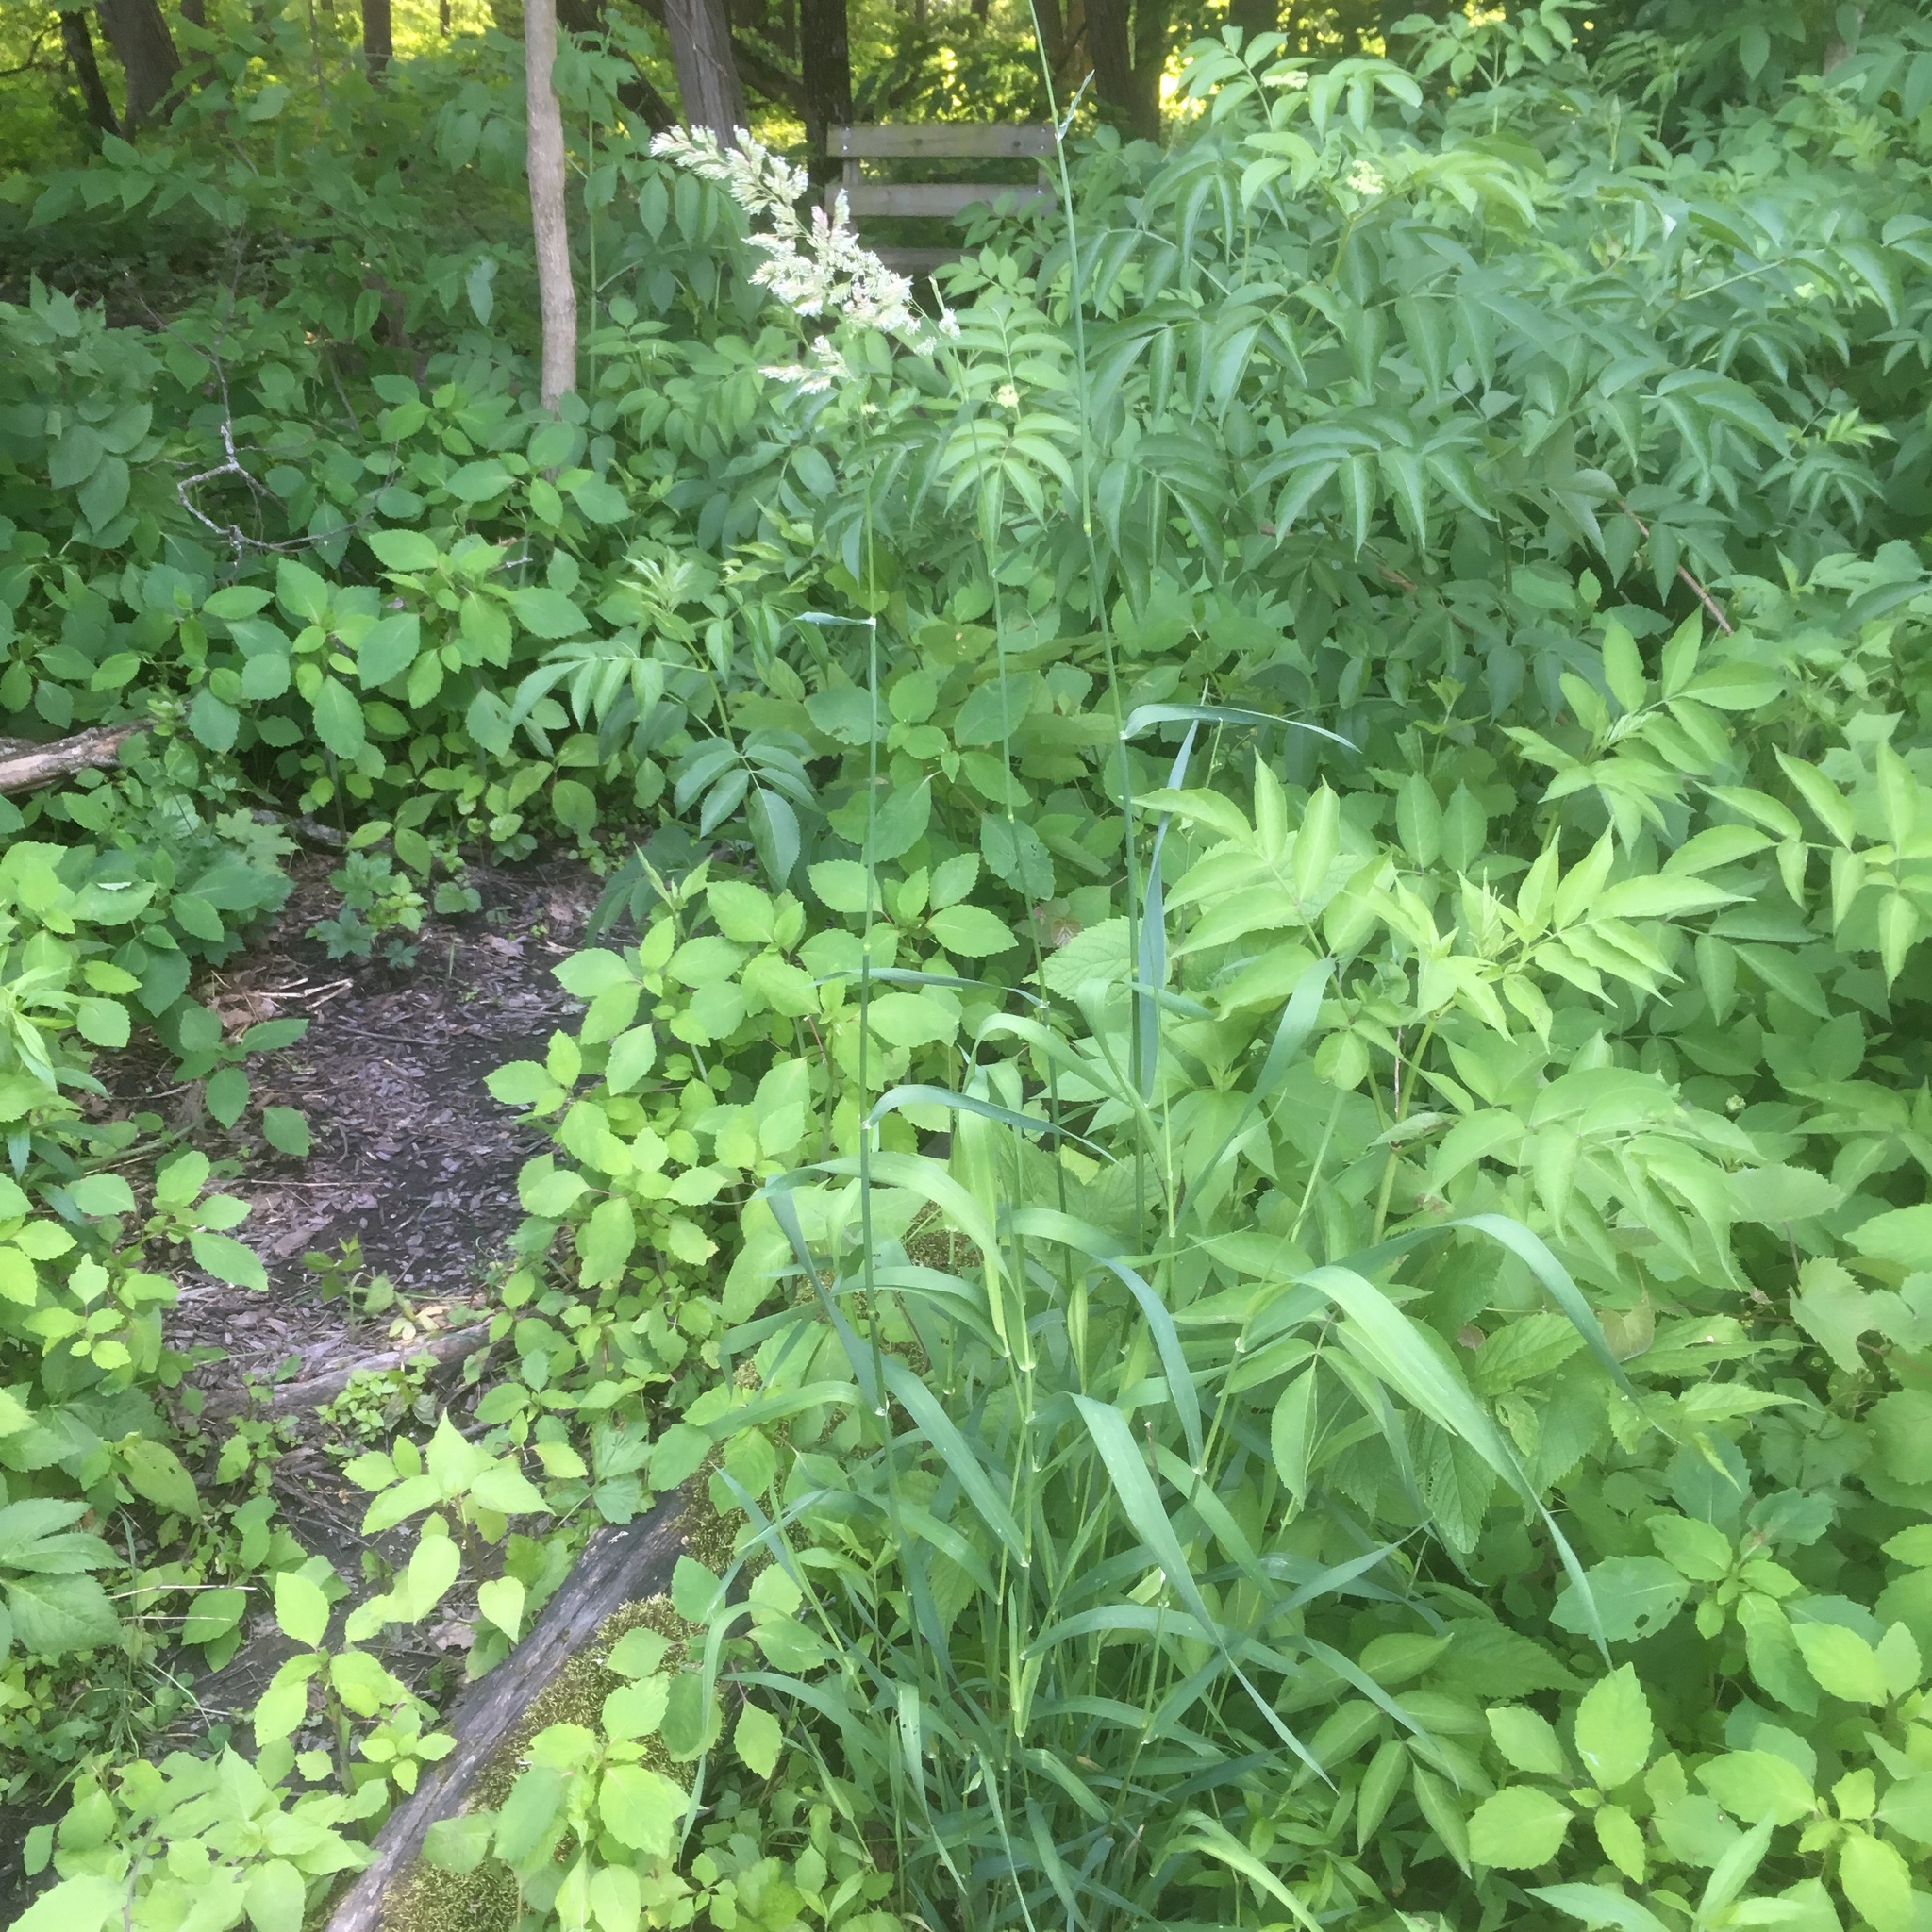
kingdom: Plantae
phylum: Tracheophyta
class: Liliopsida
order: Poales
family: Poaceae
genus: Phalaris
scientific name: Phalaris arundinacea
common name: Reed canary-grass
